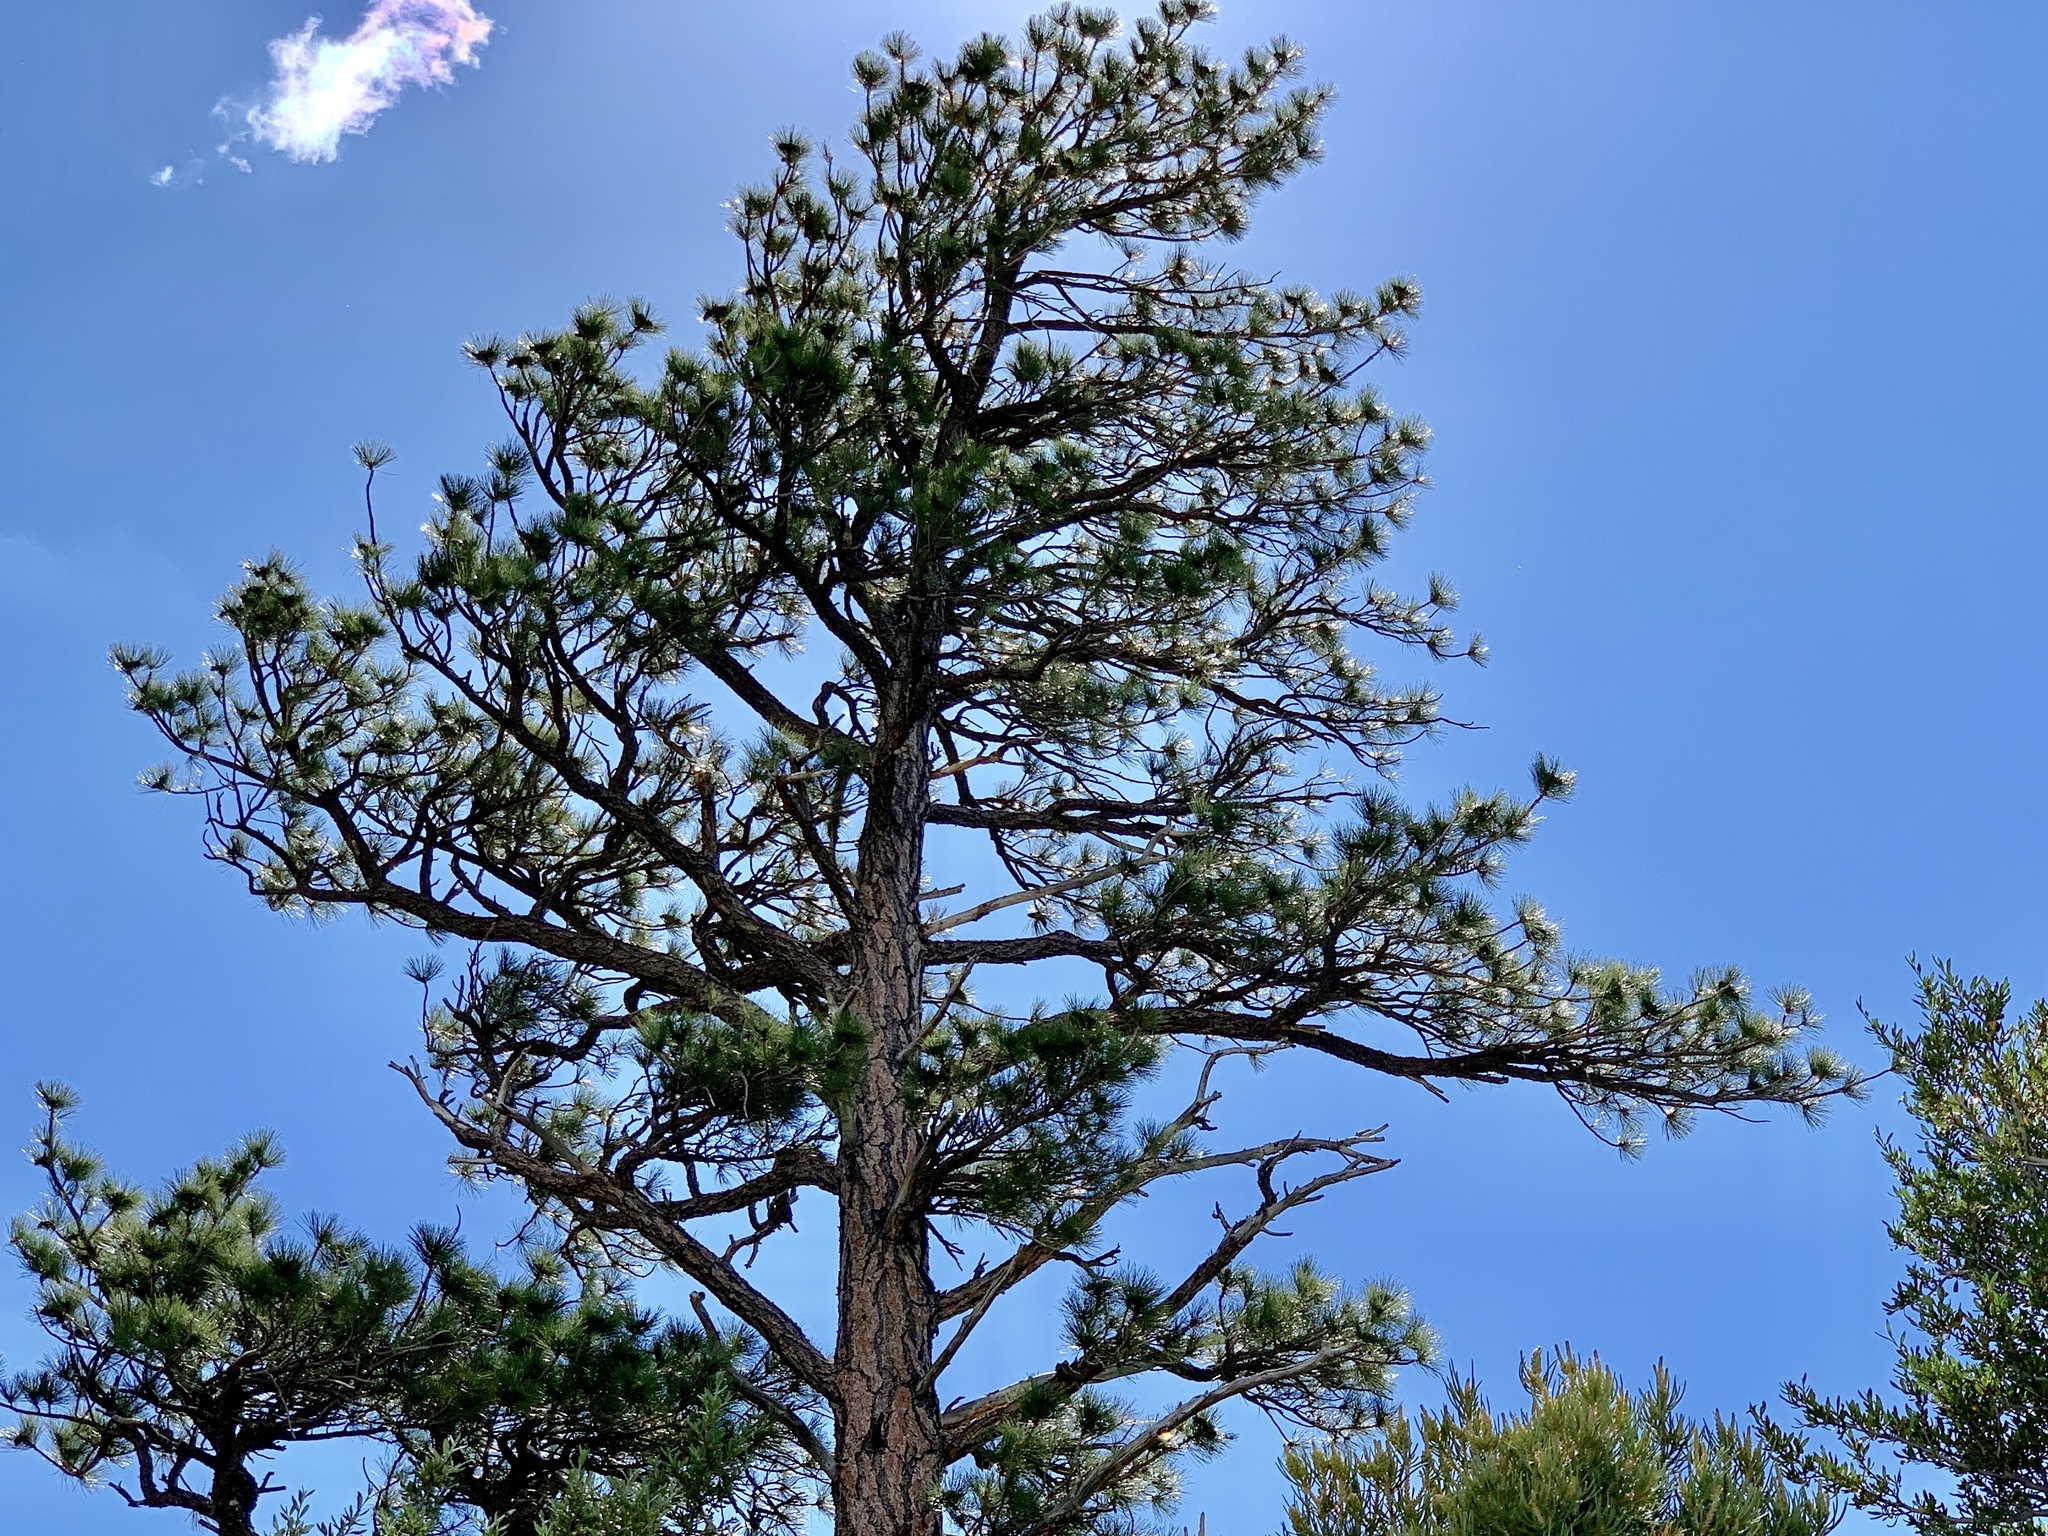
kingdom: Plantae
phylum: Tracheophyta
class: Pinopsida
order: Pinales
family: Pinaceae
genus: Pinus
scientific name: Pinus ponderosa
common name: Western yellow-pine
